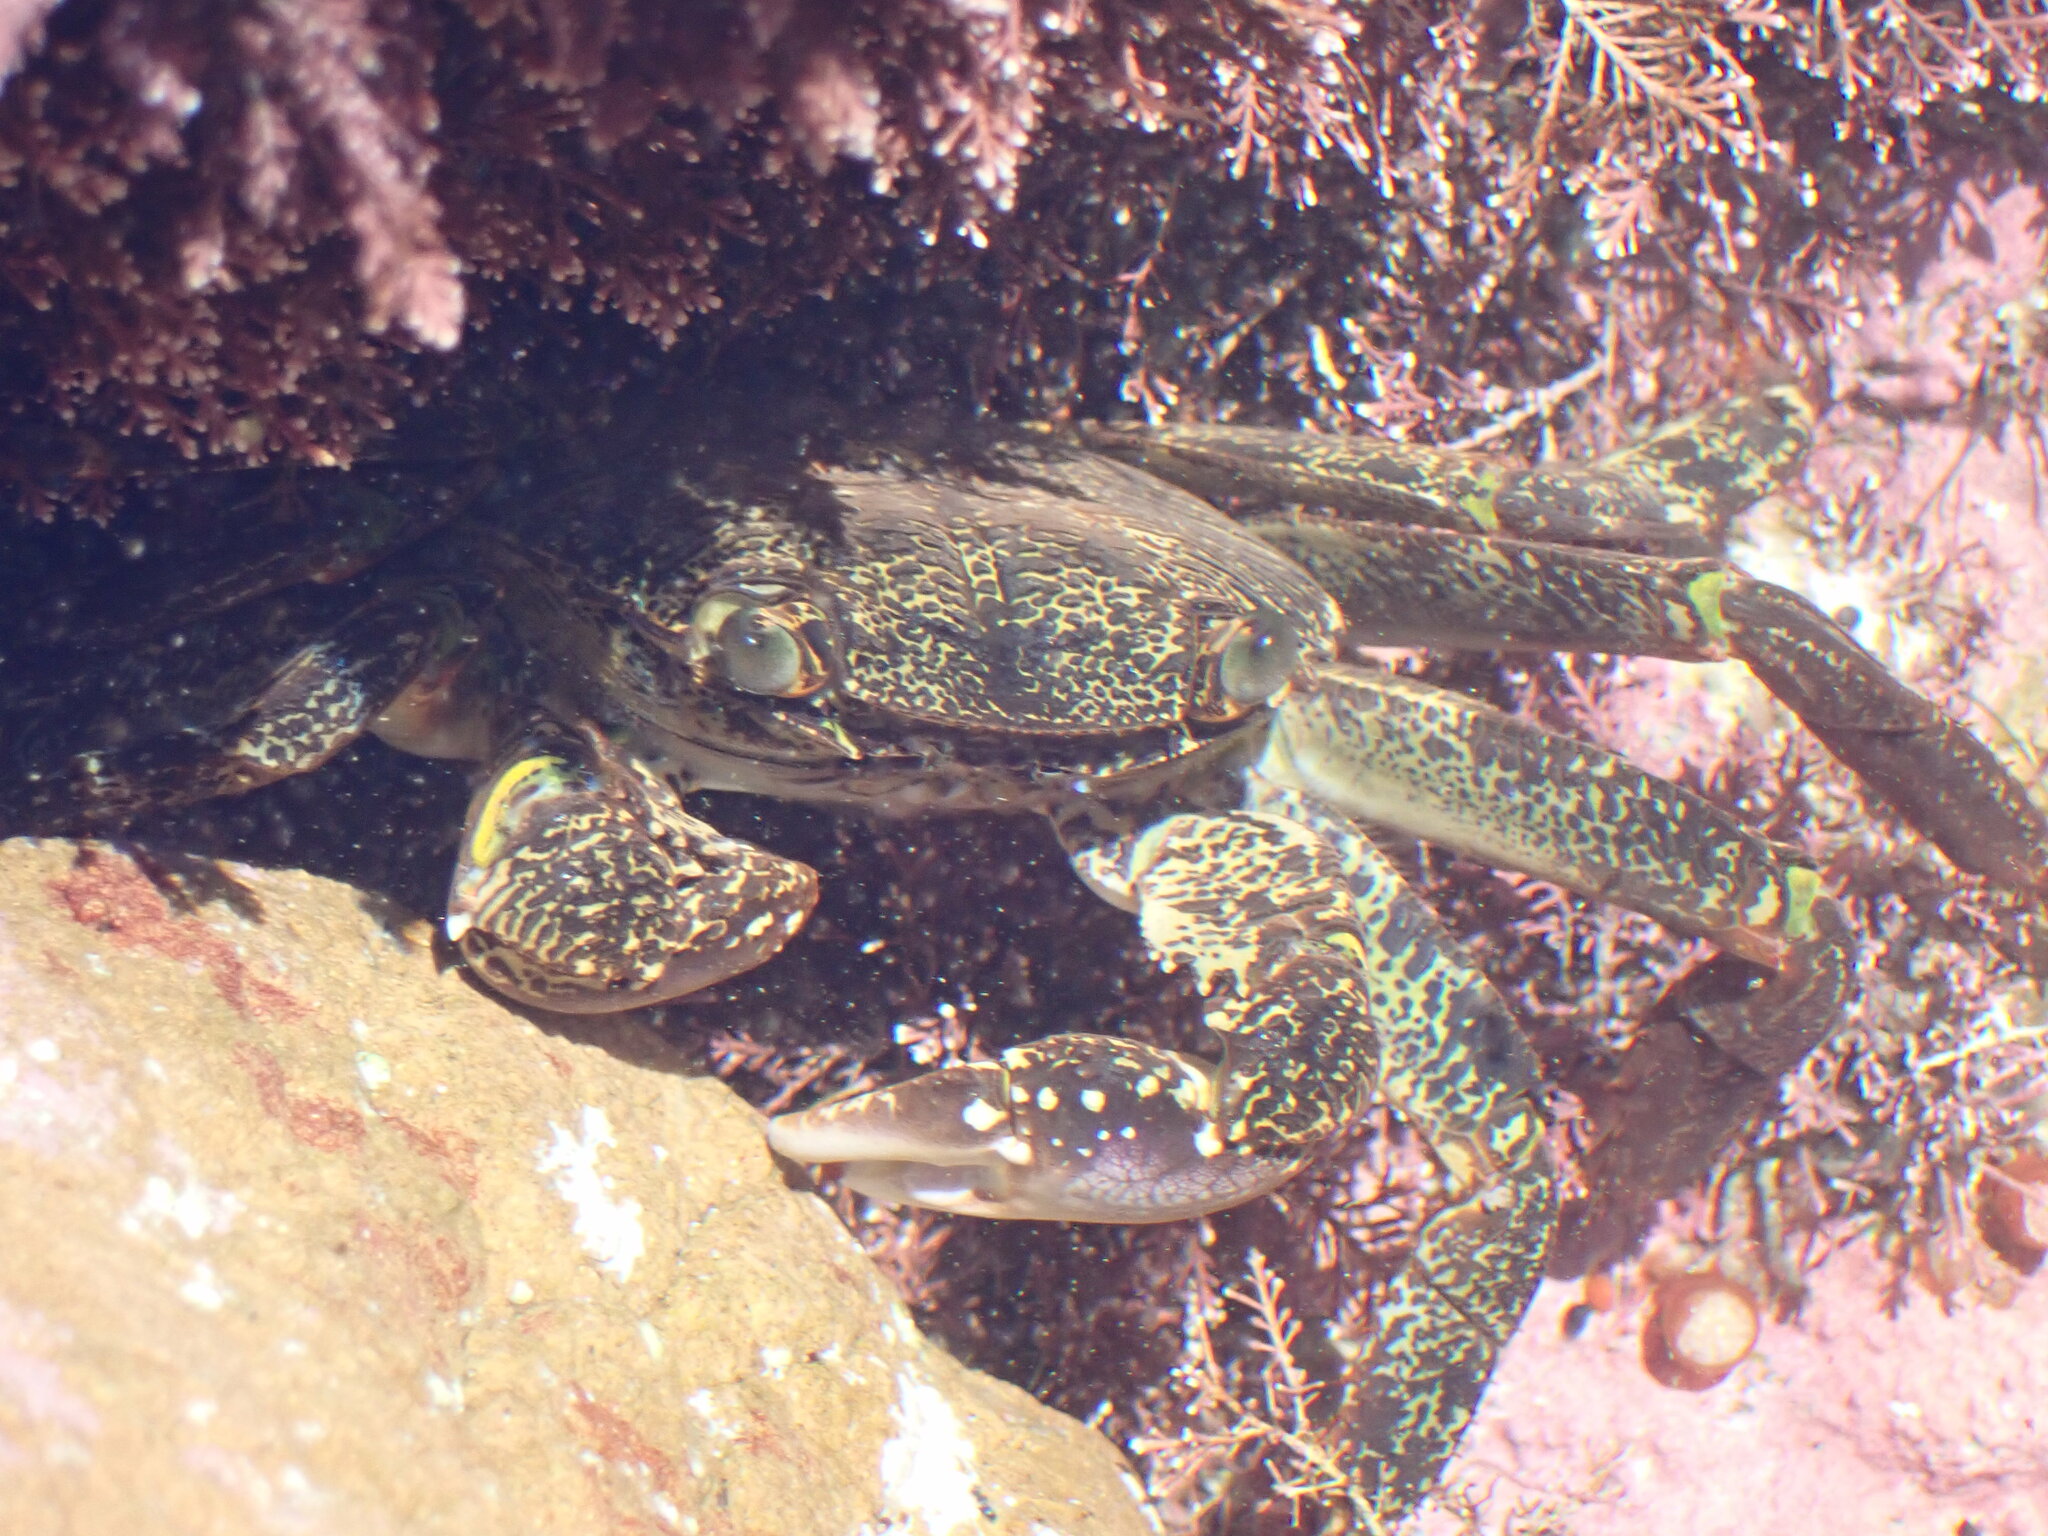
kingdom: Animalia
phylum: Arthropoda
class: Malacostraca
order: Decapoda
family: Grapsidae
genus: Leptograpsus
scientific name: Leptograpsus variegatus
